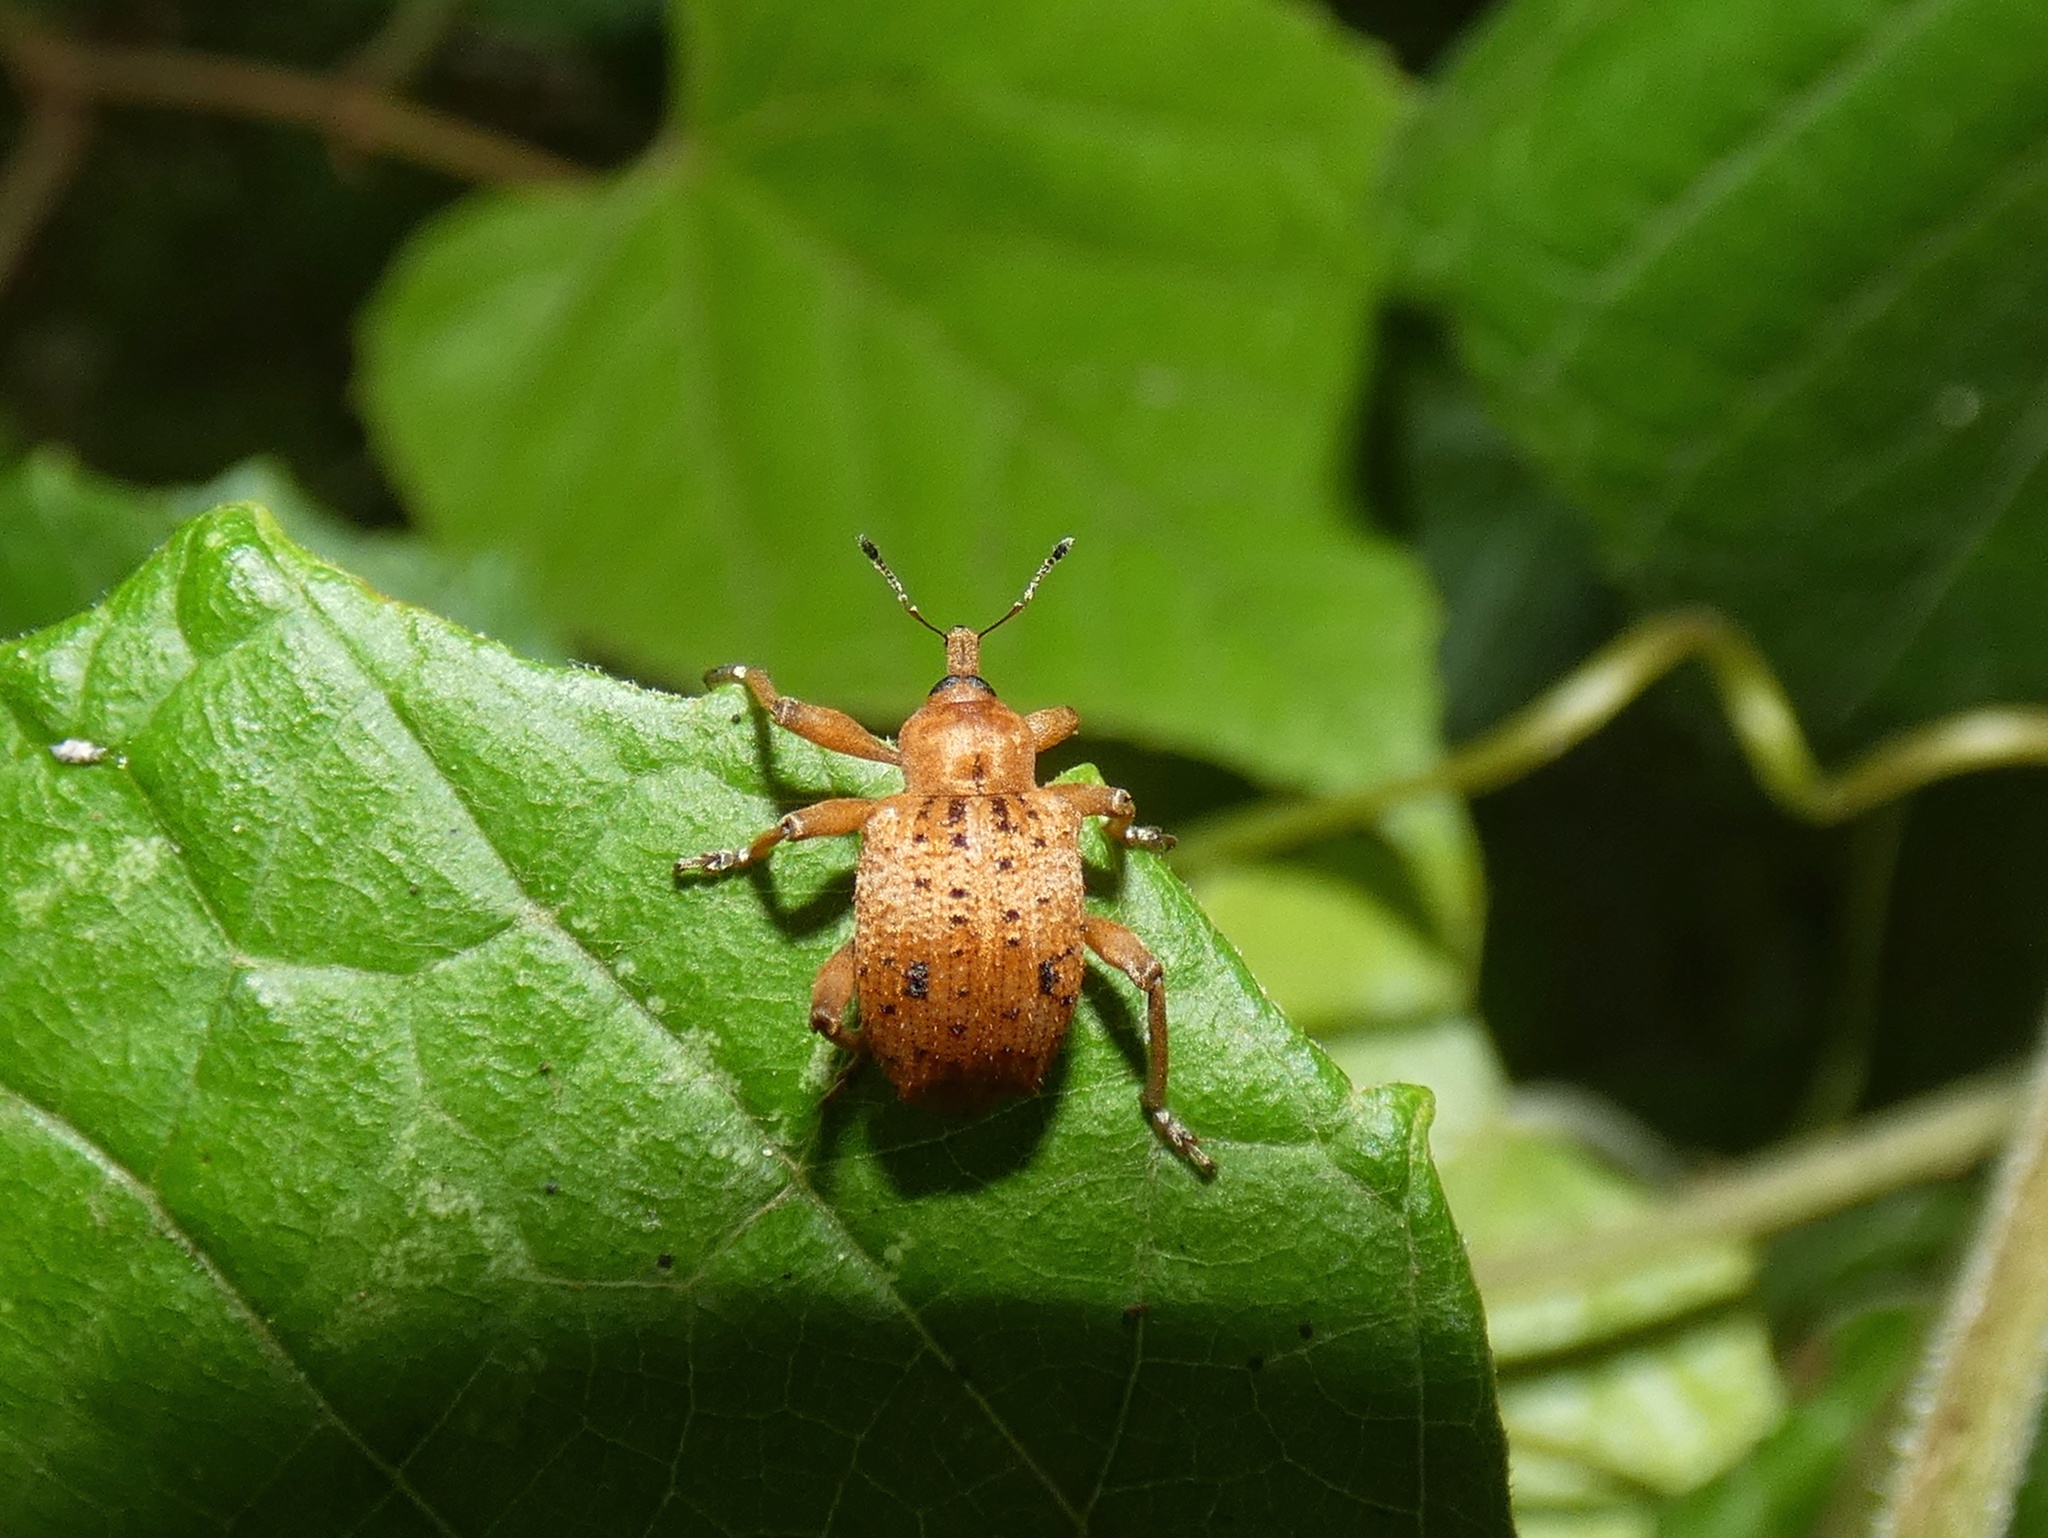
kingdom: Animalia
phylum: Arthropoda
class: Insecta
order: Coleoptera
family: Curculionidae
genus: Phelypera
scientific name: Phelypera
